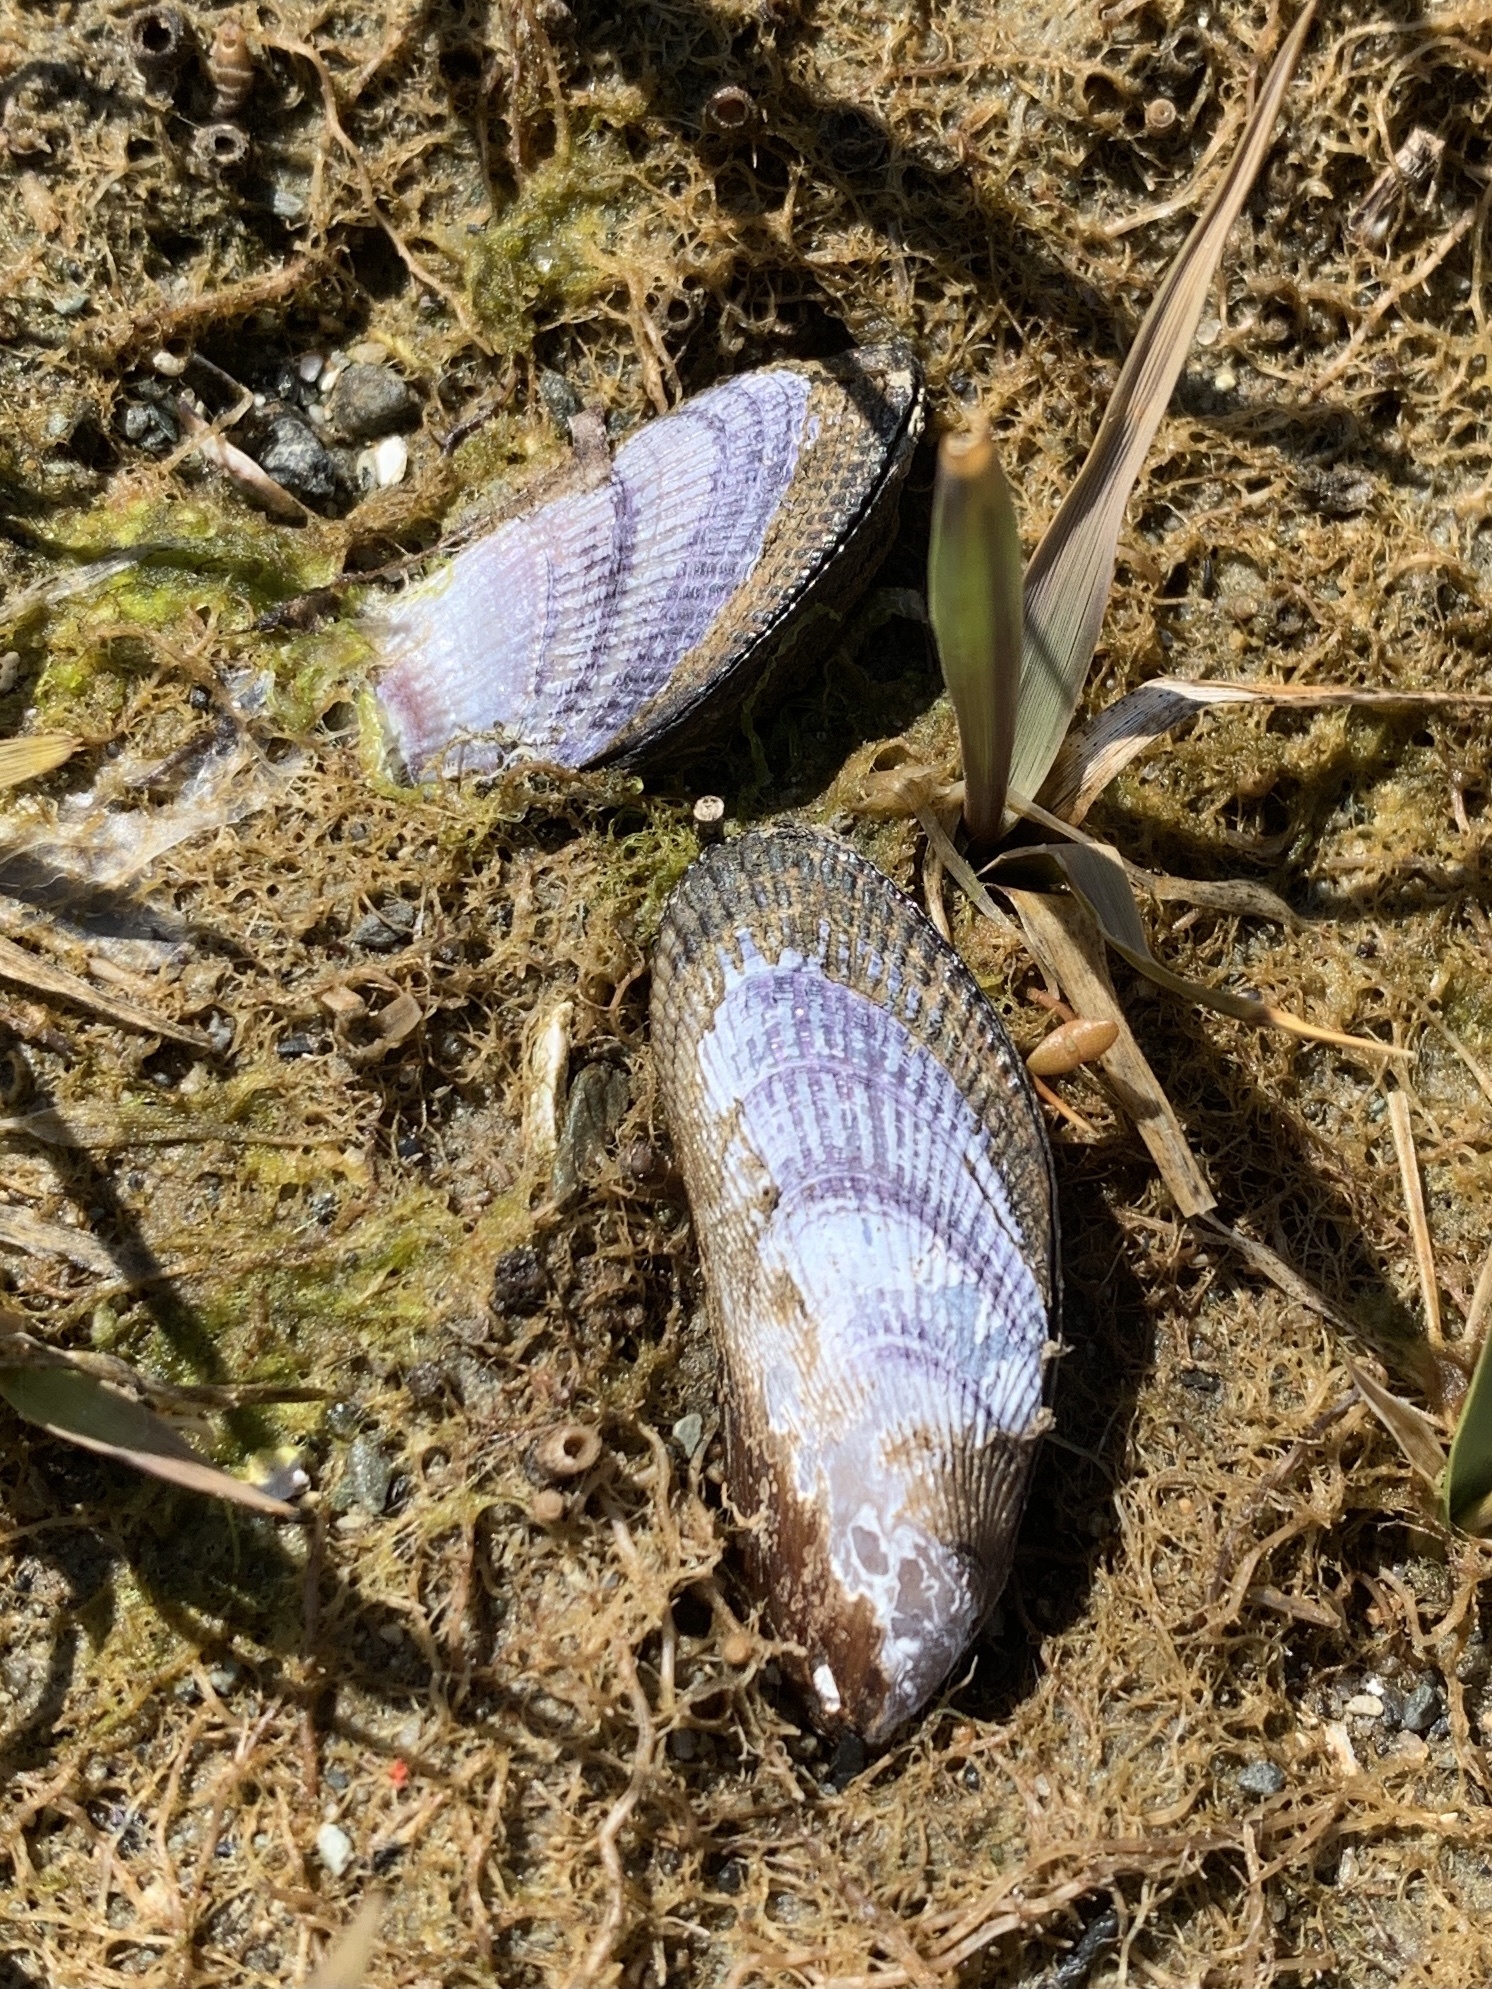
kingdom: Animalia
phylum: Mollusca
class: Bivalvia
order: Mytilida
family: Mytilidae
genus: Geukensia
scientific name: Geukensia demissa
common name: Ribbed mussel
